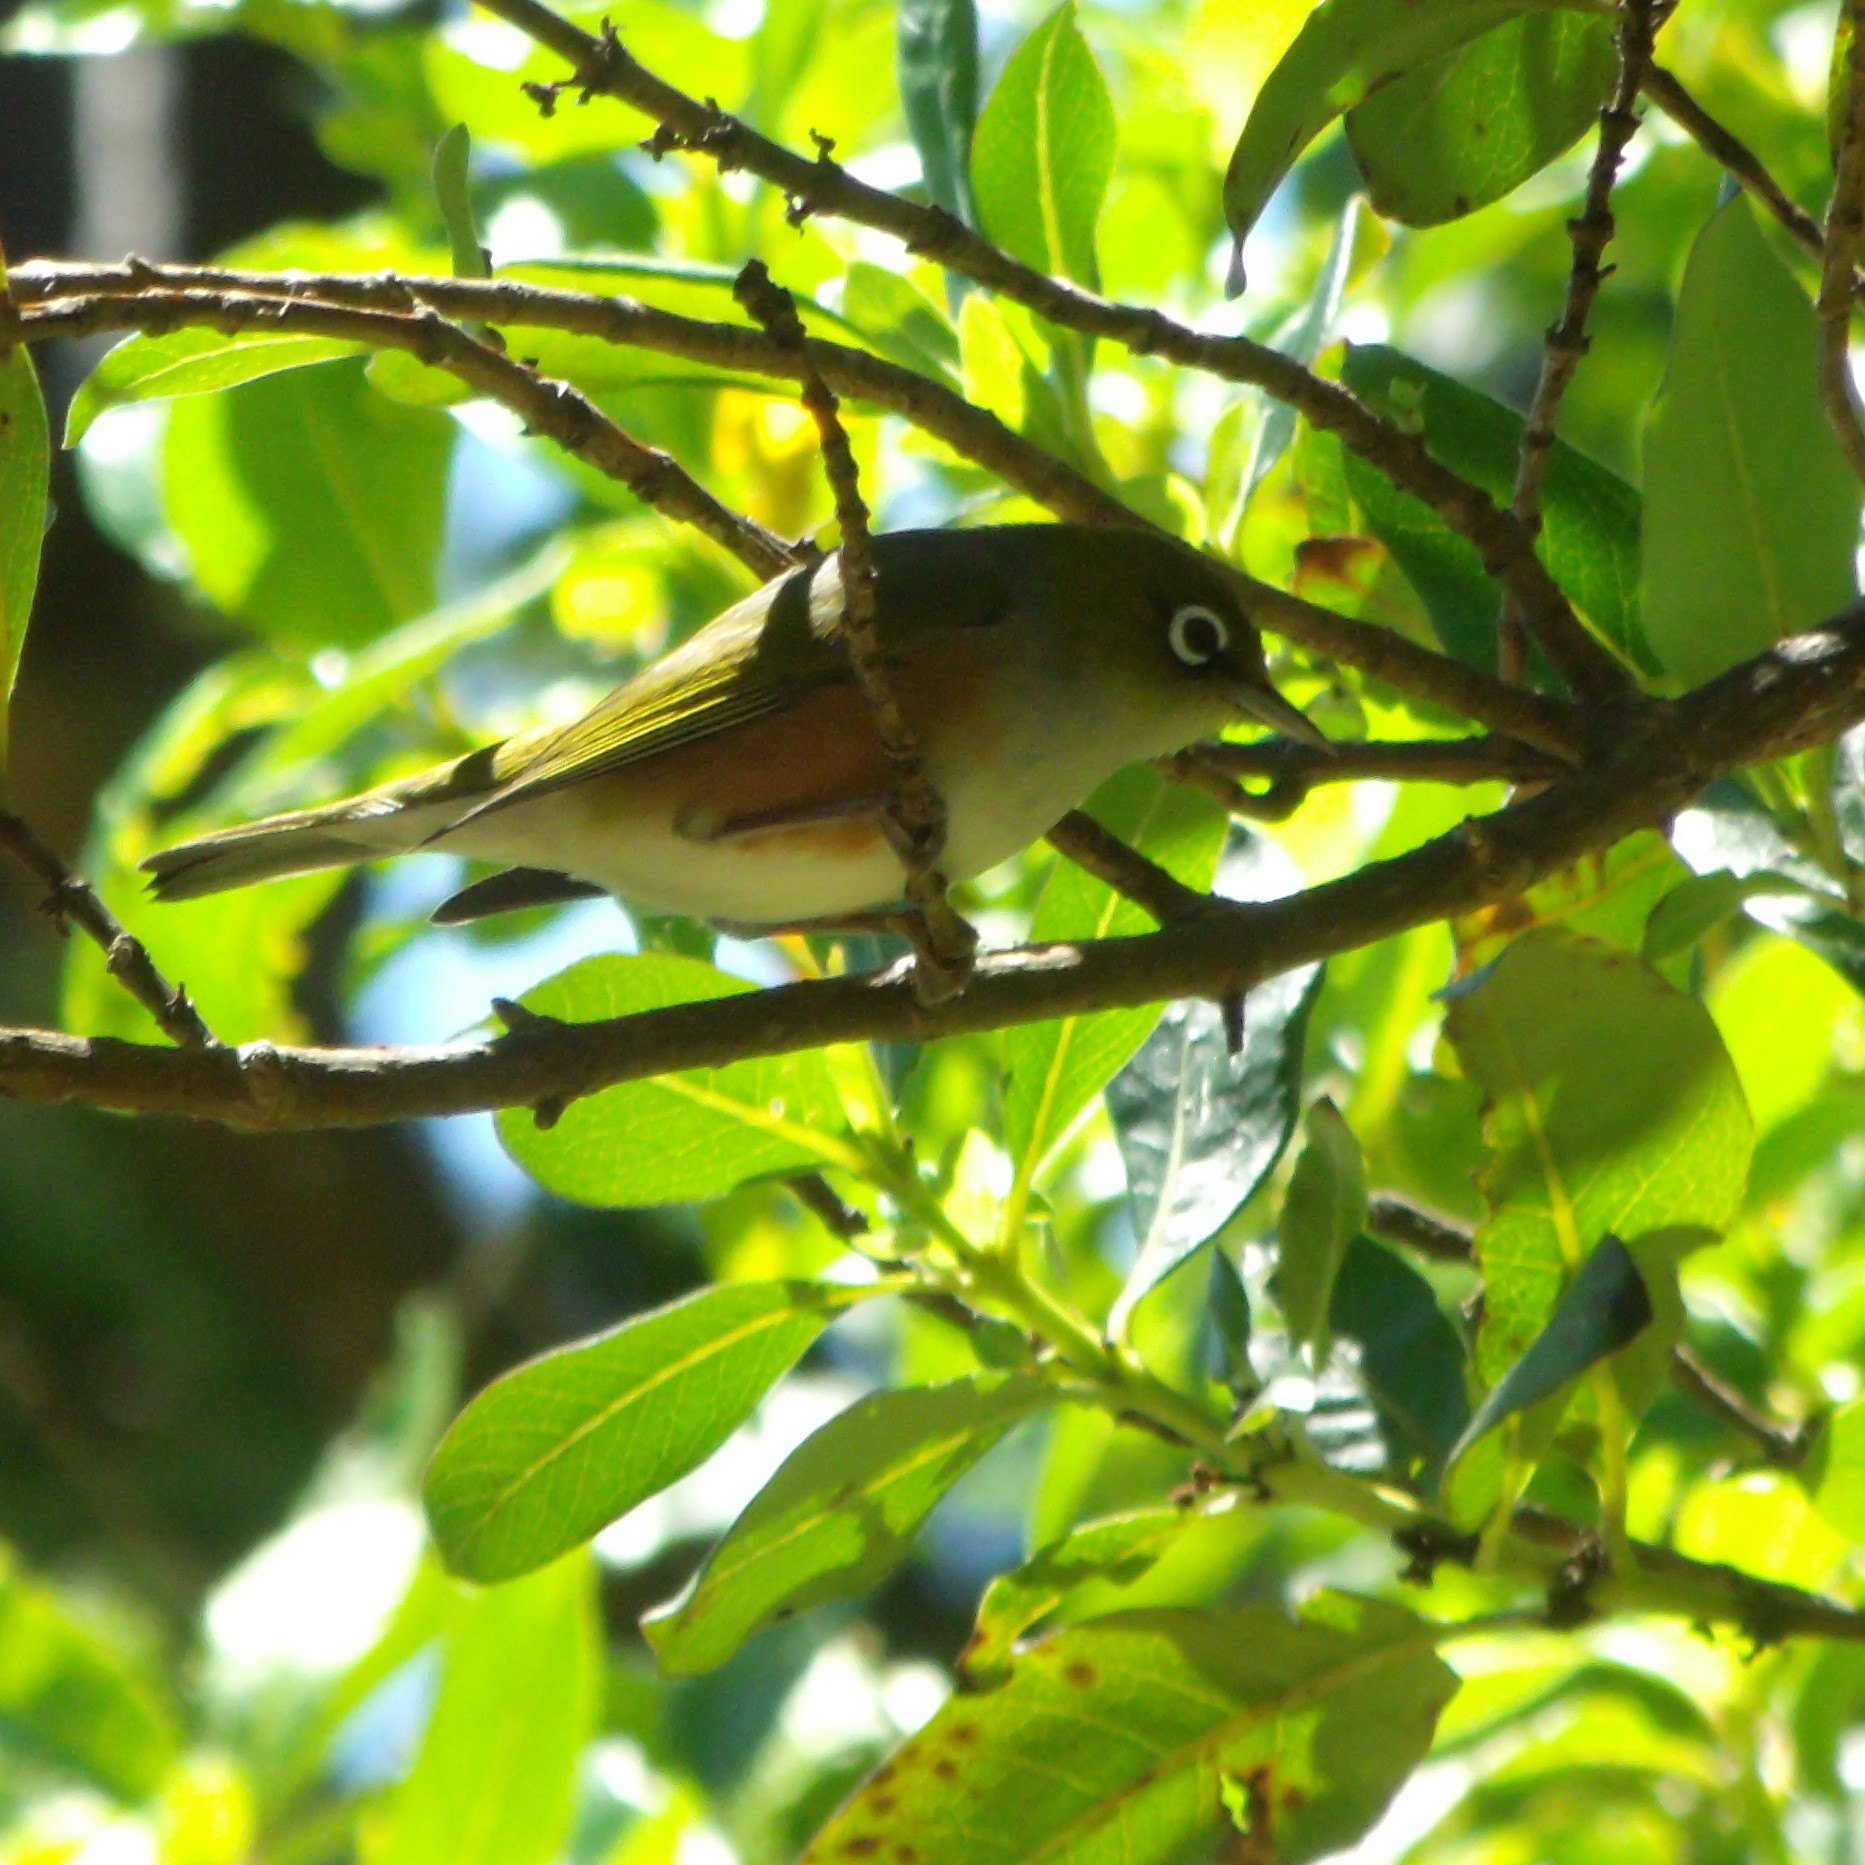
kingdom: Animalia
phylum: Chordata
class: Aves
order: Passeriformes
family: Zosteropidae
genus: Zosterops
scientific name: Zosterops lateralis
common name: Silvereye
